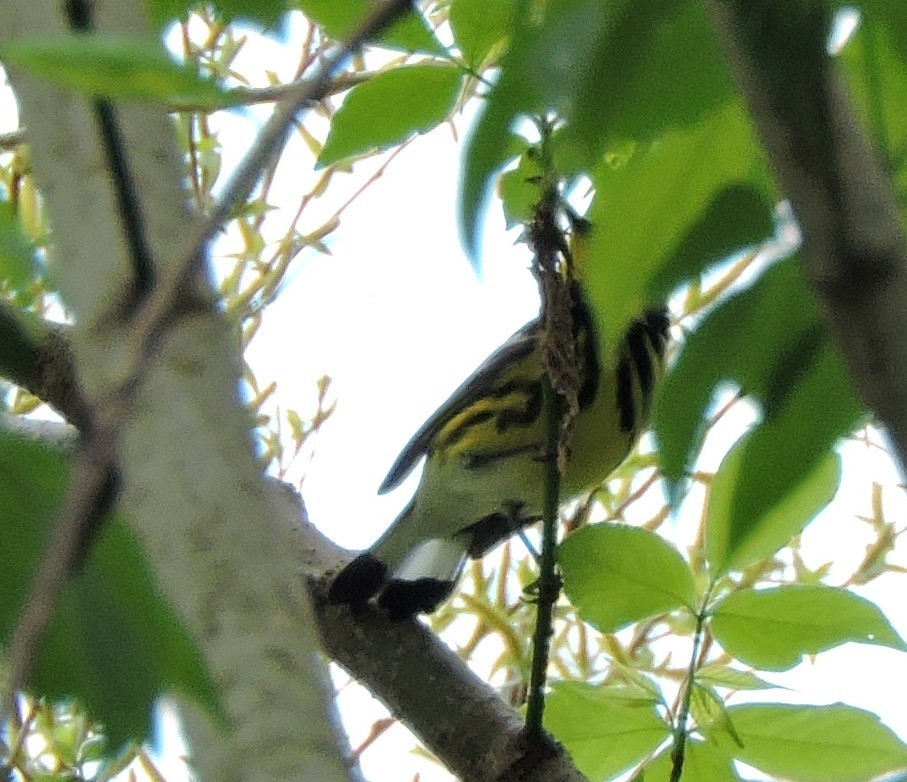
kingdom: Animalia
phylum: Chordata
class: Aves
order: Passeriformes
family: Parulidae
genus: Setophaga
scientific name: Setophaga magnolia
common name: Magnolia warbler
